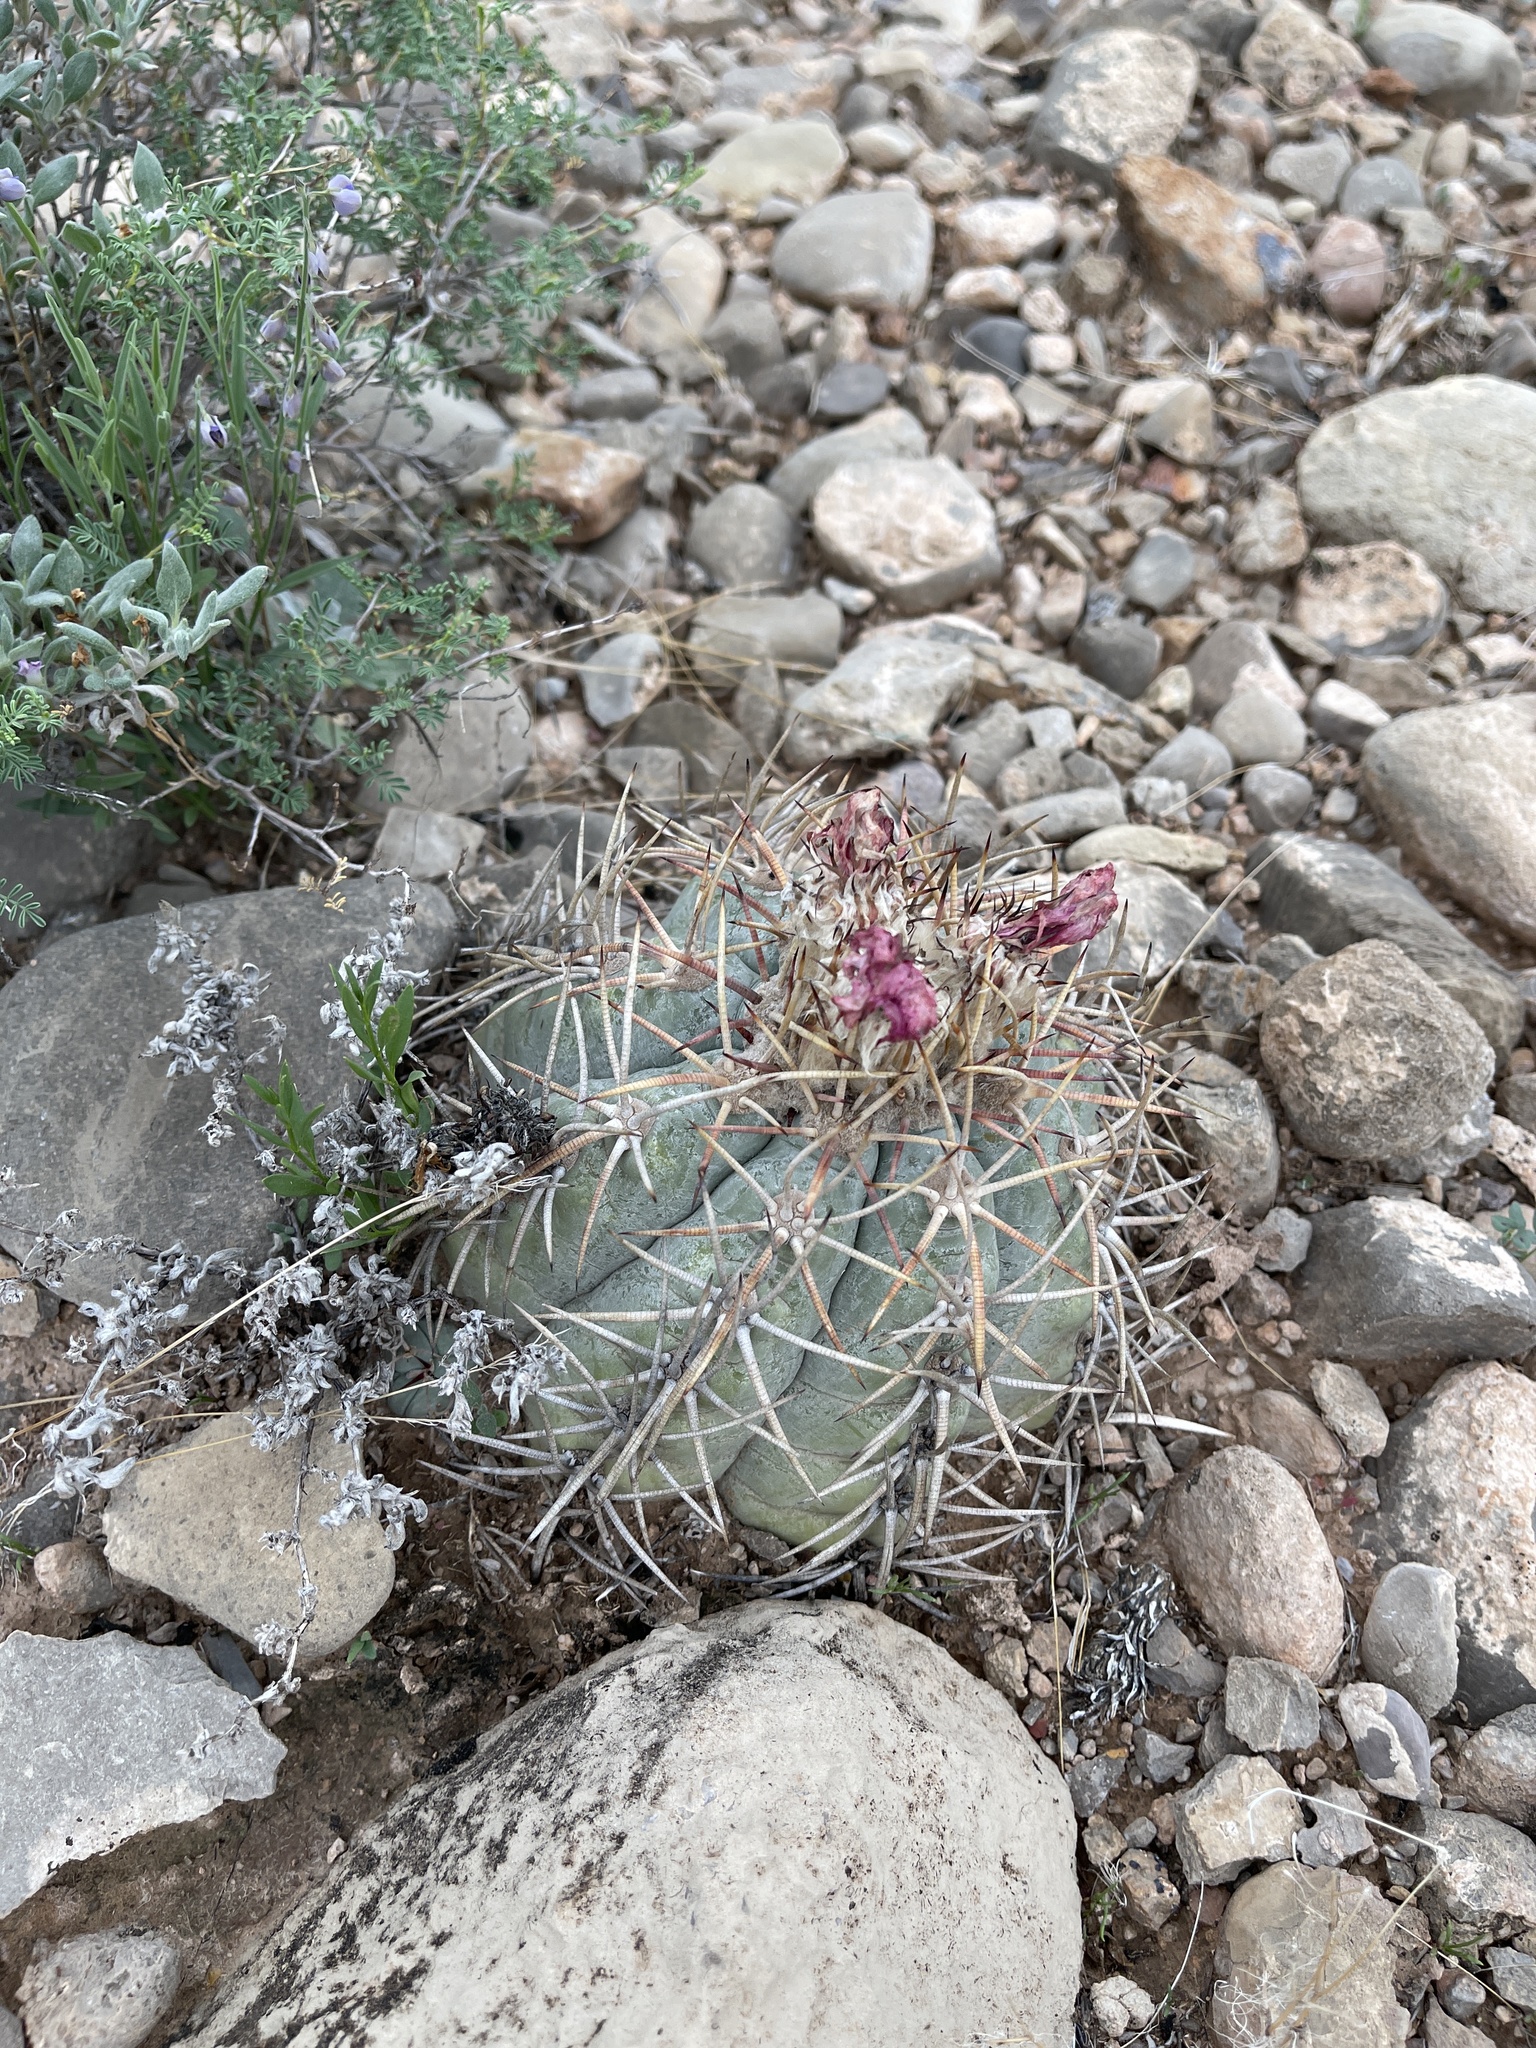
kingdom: Plantae
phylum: Tracheophyta
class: Magnoliopsida
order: Caryophyllales
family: Cactaceae
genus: Echinocactus
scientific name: Echinocactus horizonthalonius
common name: Devilshead
